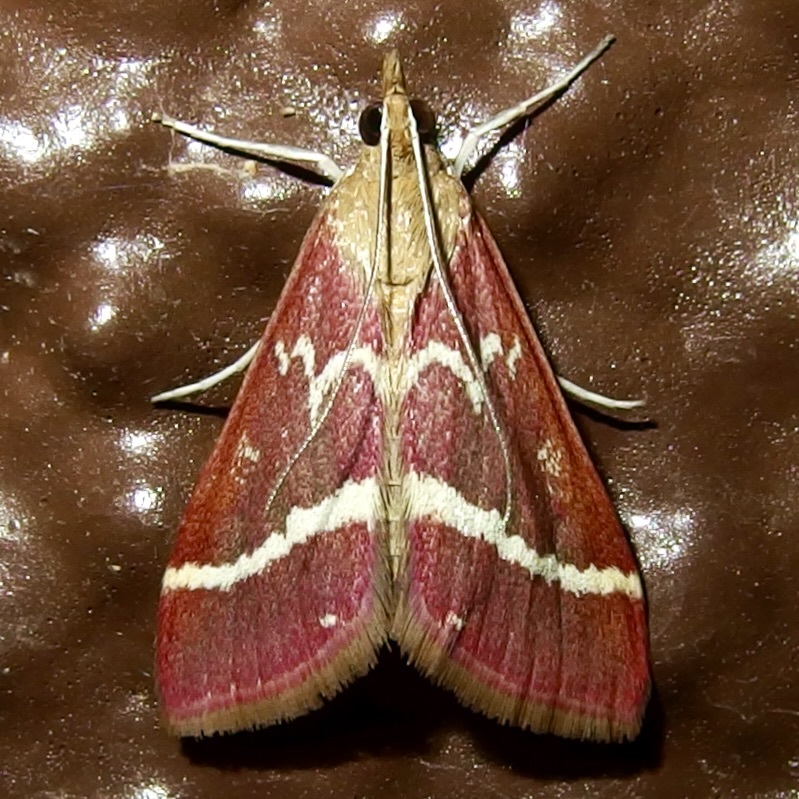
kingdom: Animalia
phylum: Arthropoda
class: Insecta
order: Lepidoptera
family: Crambidae
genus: Pyrausta
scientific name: Pyrausta volupialis
